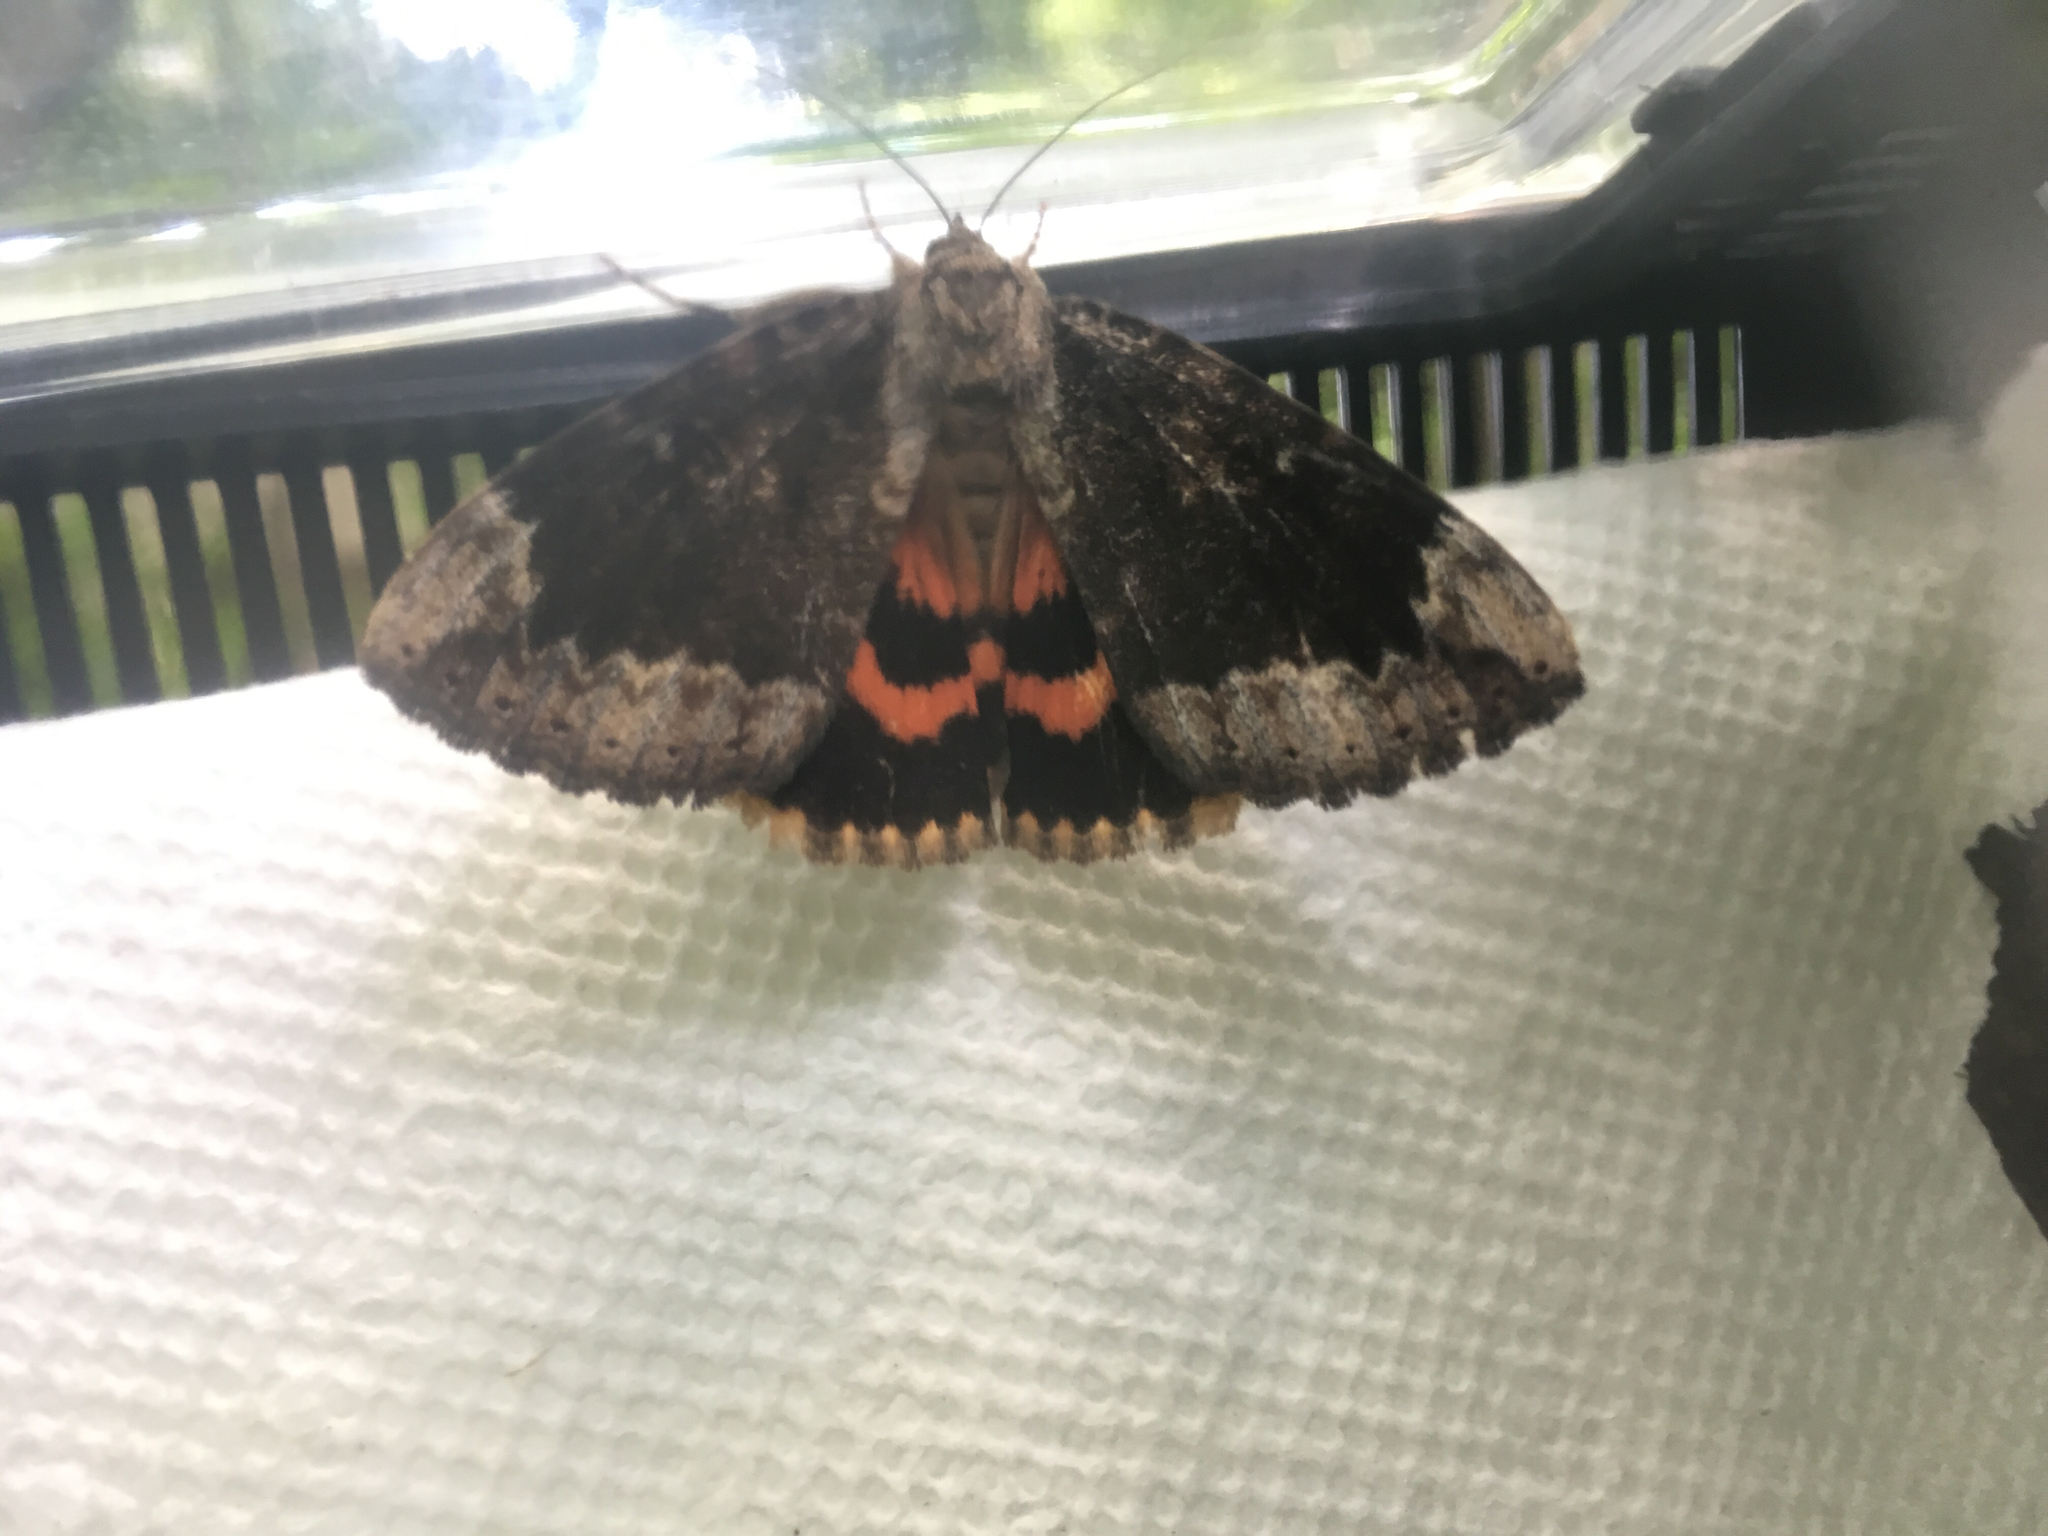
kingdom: Animalia
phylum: Arthropoda
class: Insecta
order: Lepidoptera
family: Erebidae
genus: Catocala
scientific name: Catocala innubens
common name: Betrothed underwing
